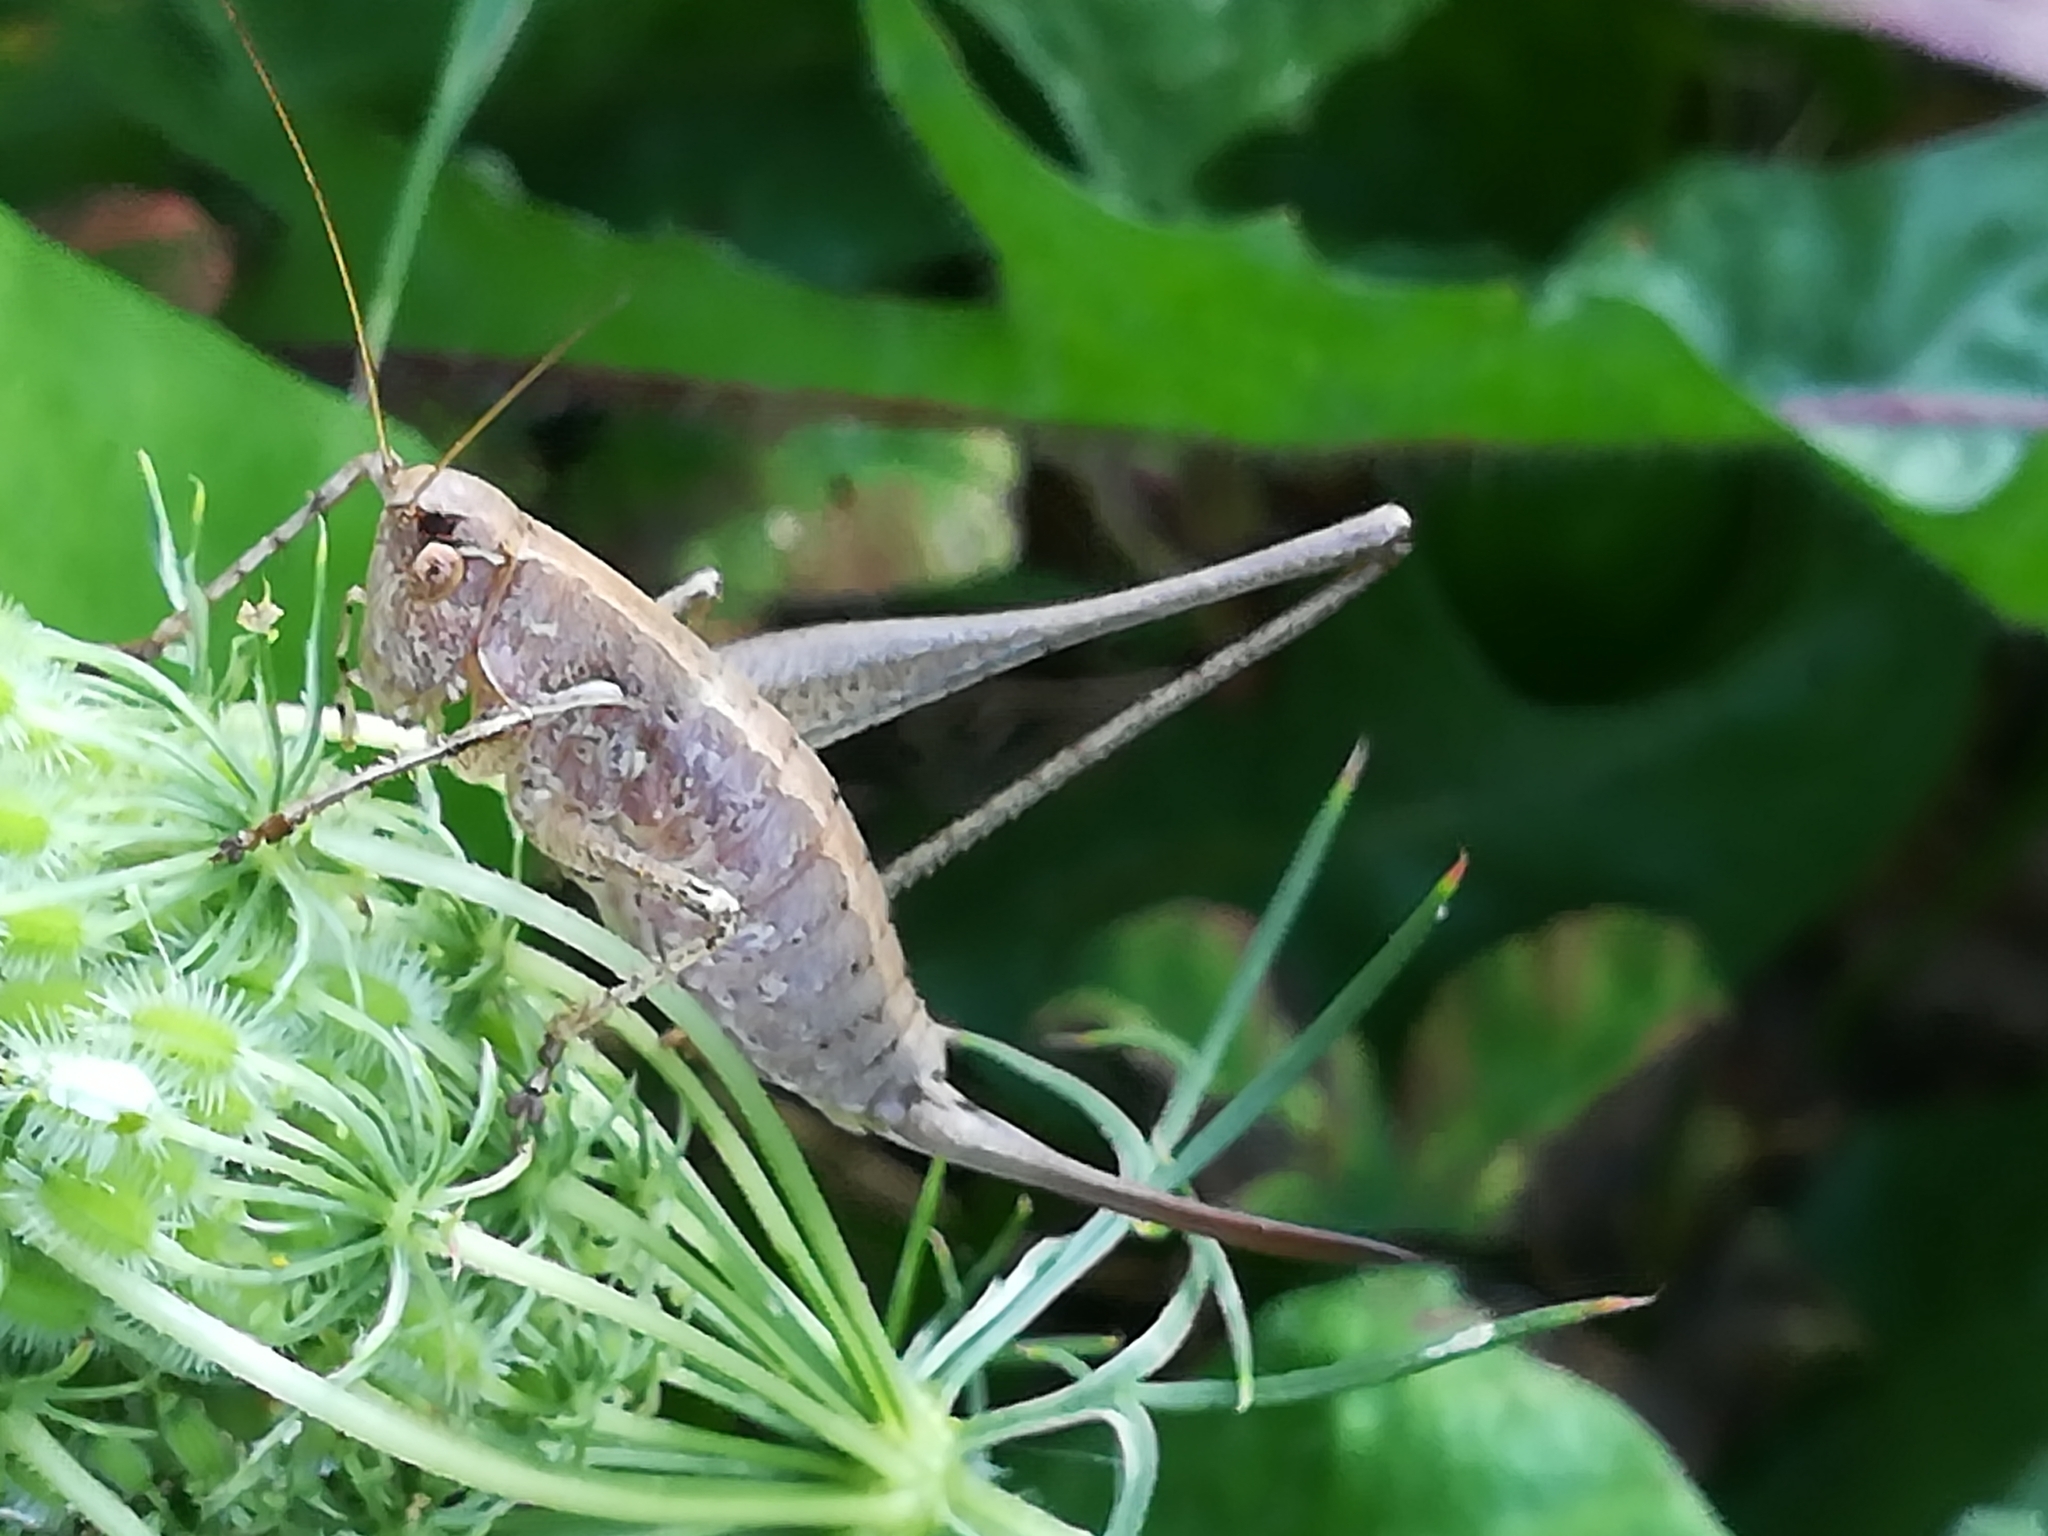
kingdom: Animalia
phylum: Arthropoda
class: Insecta
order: Orthoptera
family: Tettigoniidae
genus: Rhacocleis
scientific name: Rhacocleis germanica
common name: Mediterranean bush-cricket
